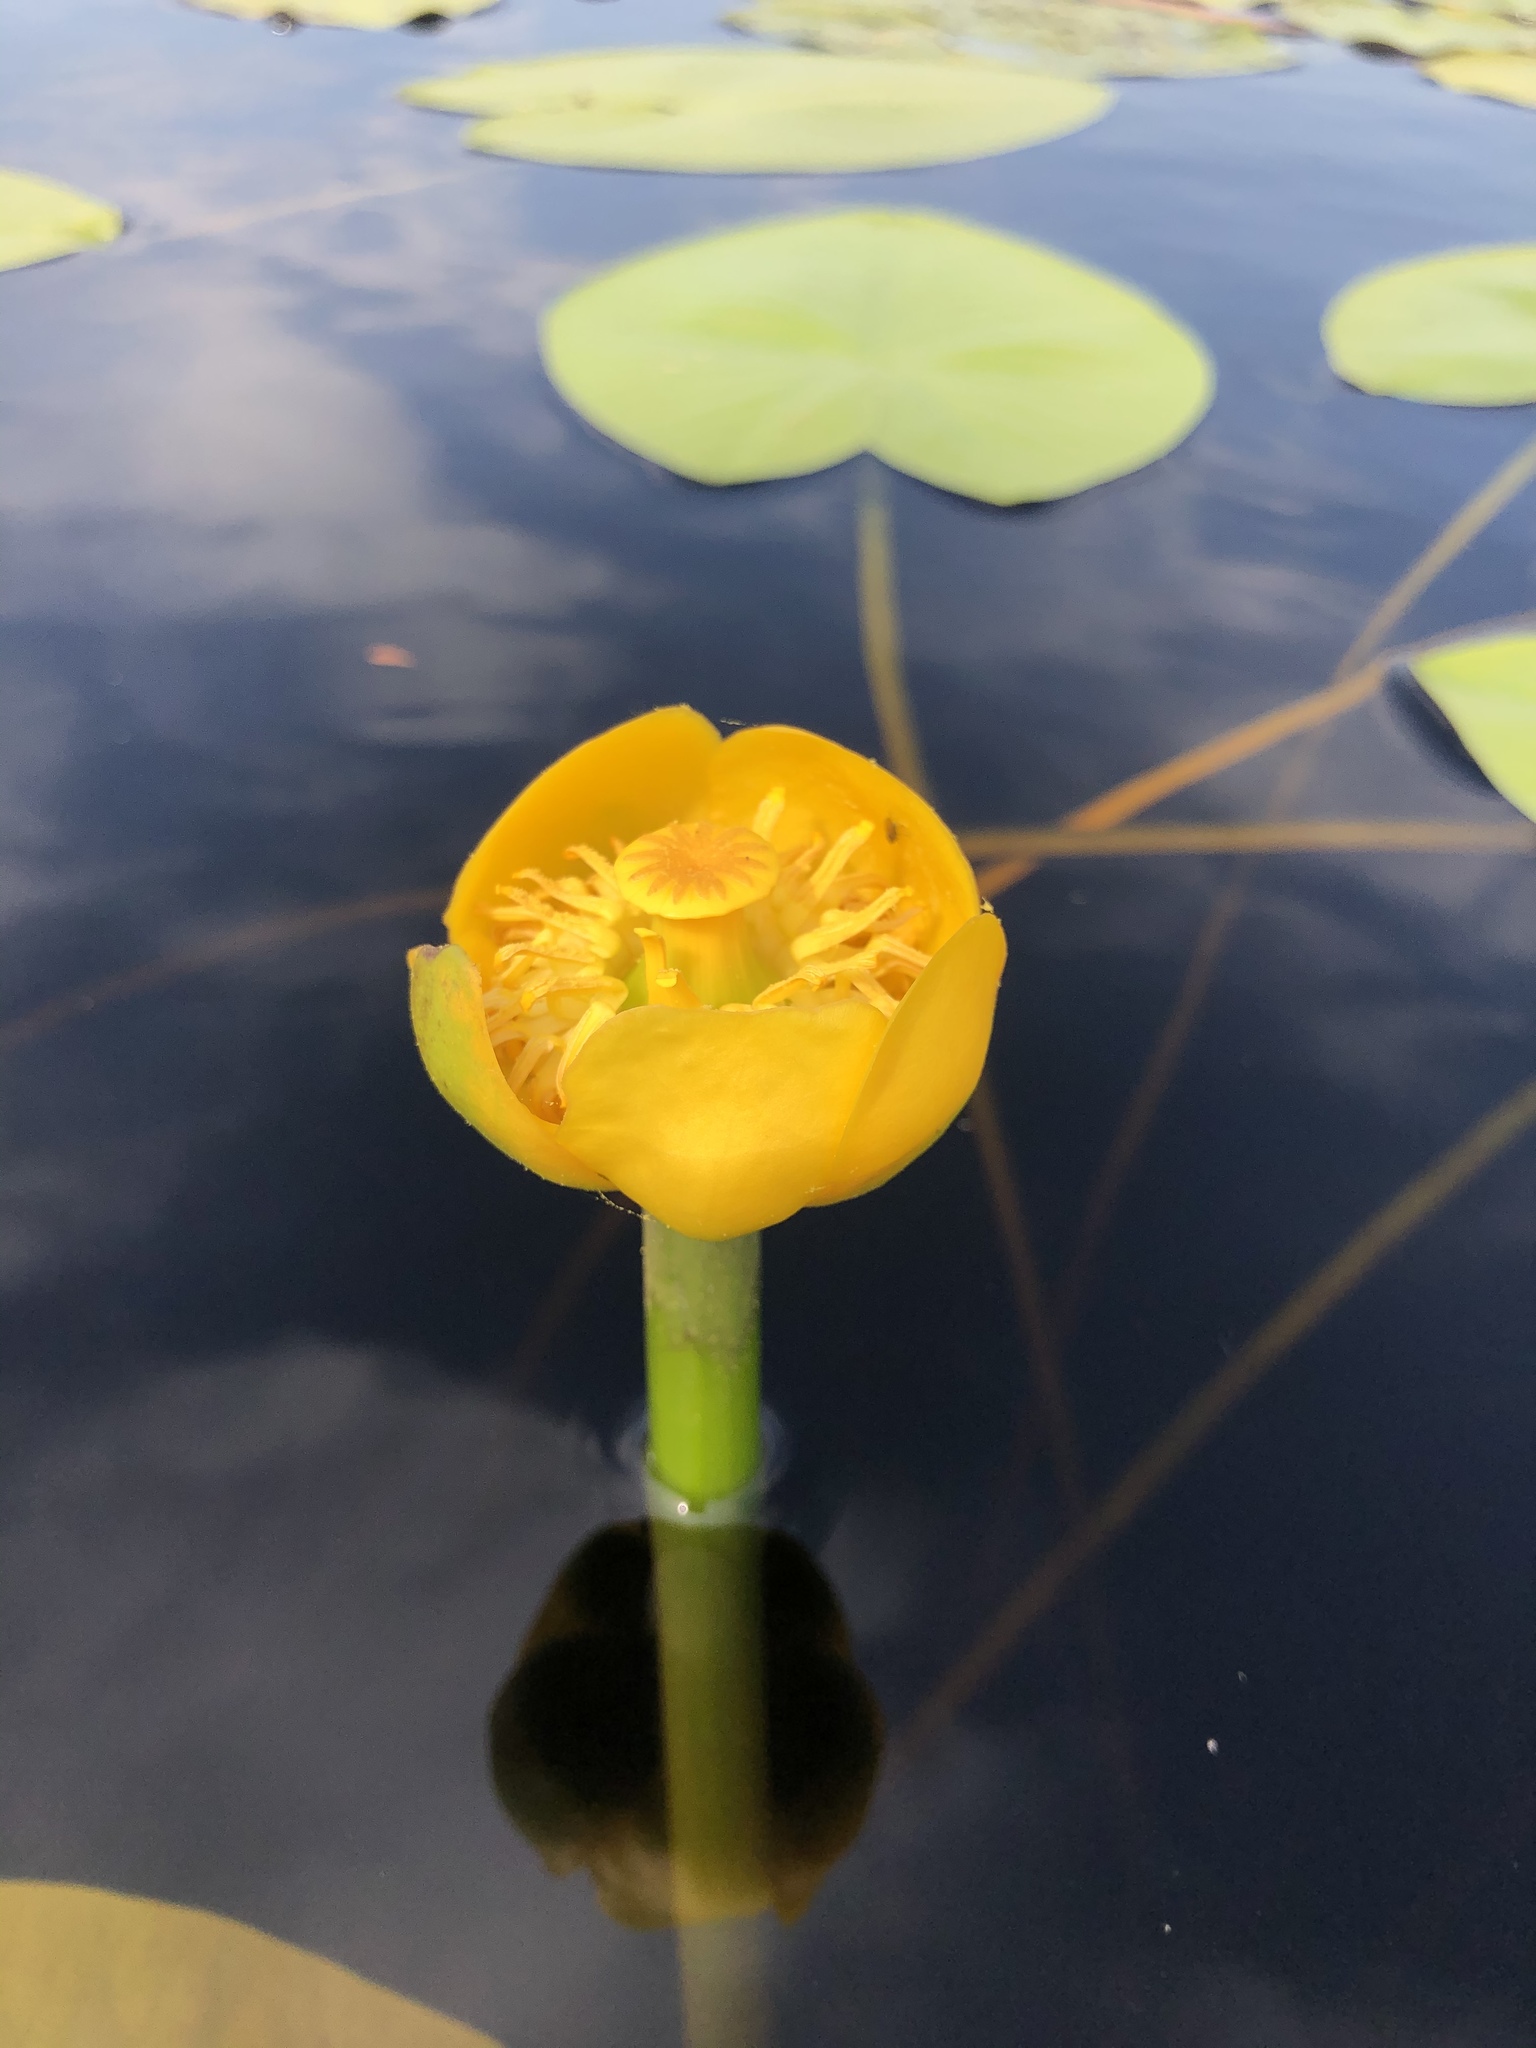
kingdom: Plantae
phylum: Tracheophyta
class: Magnoliopsida
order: Nymphaeales
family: Nymphaeaceae
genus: Nuphar
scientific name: Nuphar lutea
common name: Yellow water-lily
